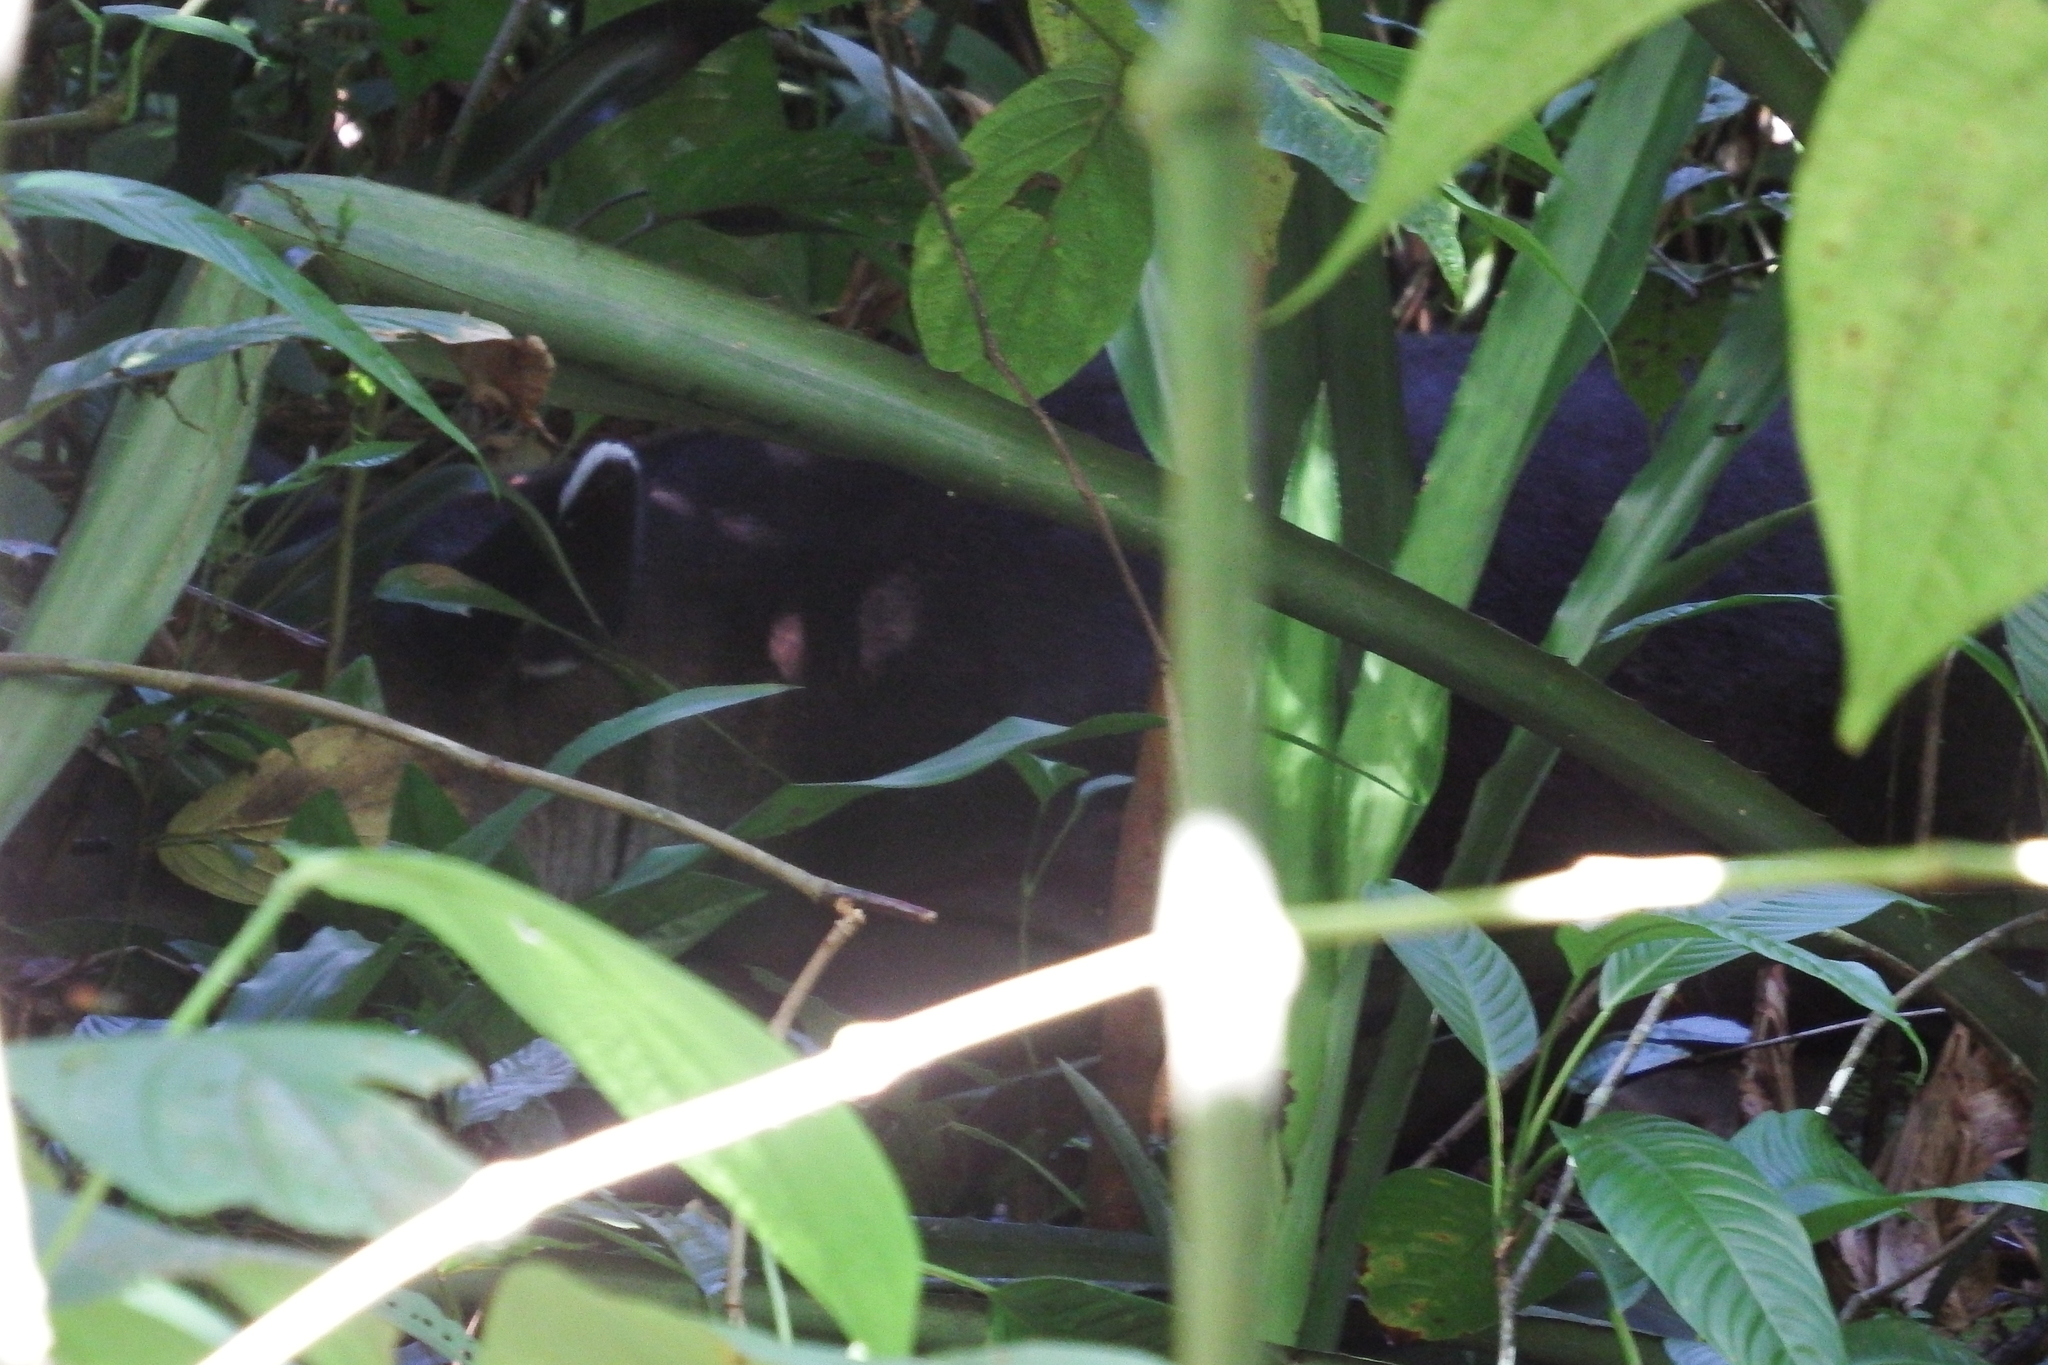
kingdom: Animalia
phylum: Chordata
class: Mammalia
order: Perissodactyla
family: Tapiridae
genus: Tapirella
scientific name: Tapirella bairdii
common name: Baird's tapir
